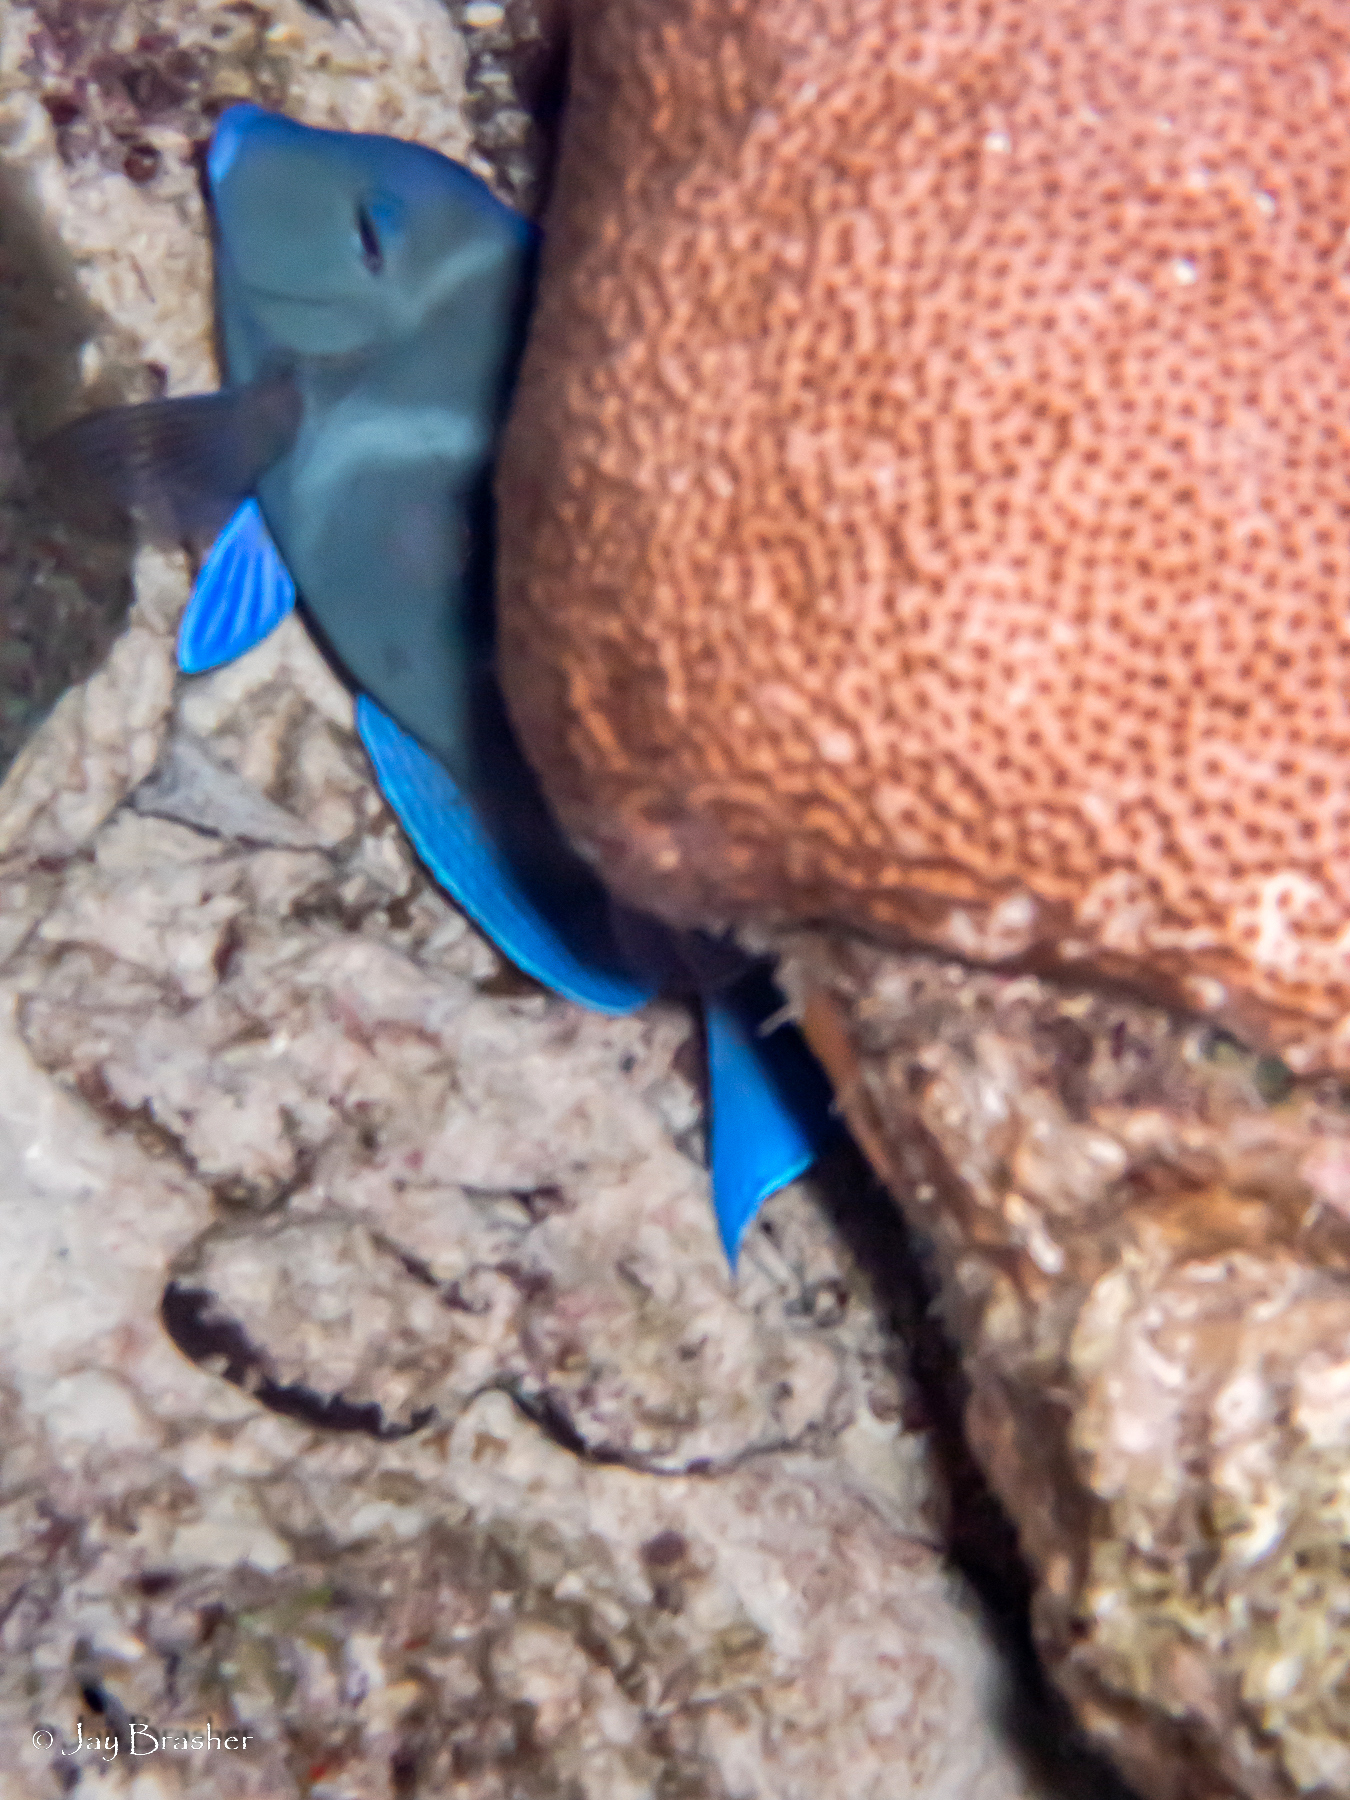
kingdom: Animalia
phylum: Chordata
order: Perciformes
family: Acanthuridae
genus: Acanthurus
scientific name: Acanthurus coeruleus
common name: Blue tang
